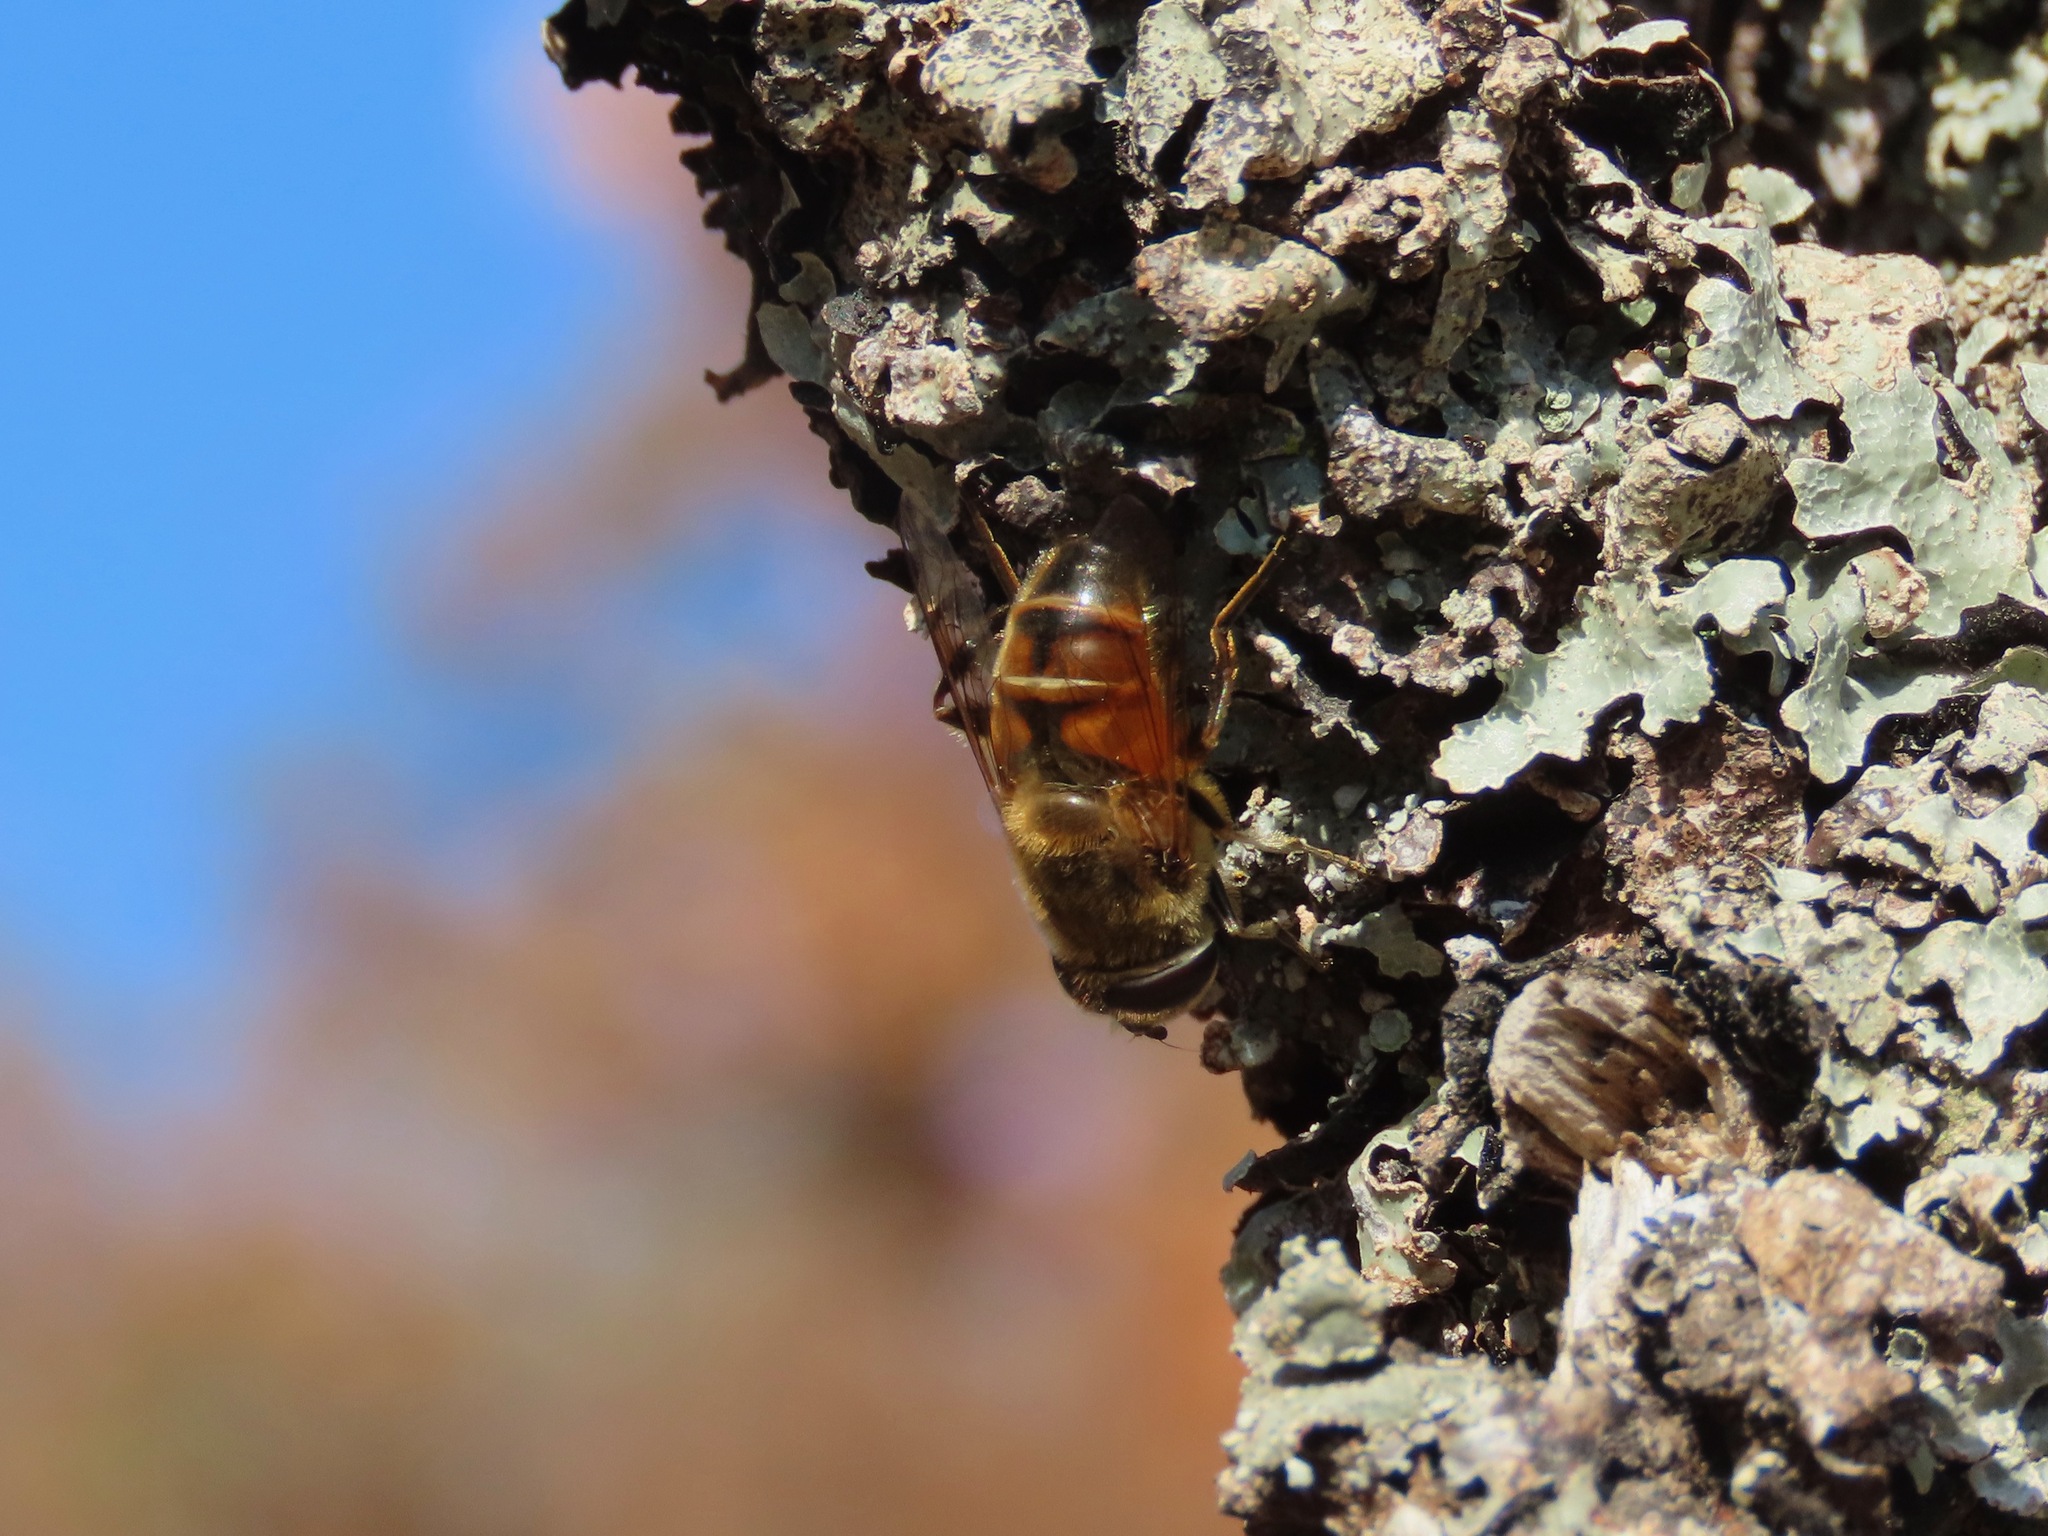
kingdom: Animalia
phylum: Arthropoda
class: Insecta
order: Diptera
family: Syrphidae
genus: Eristalis
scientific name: Eristalis tenax
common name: Drone fly
